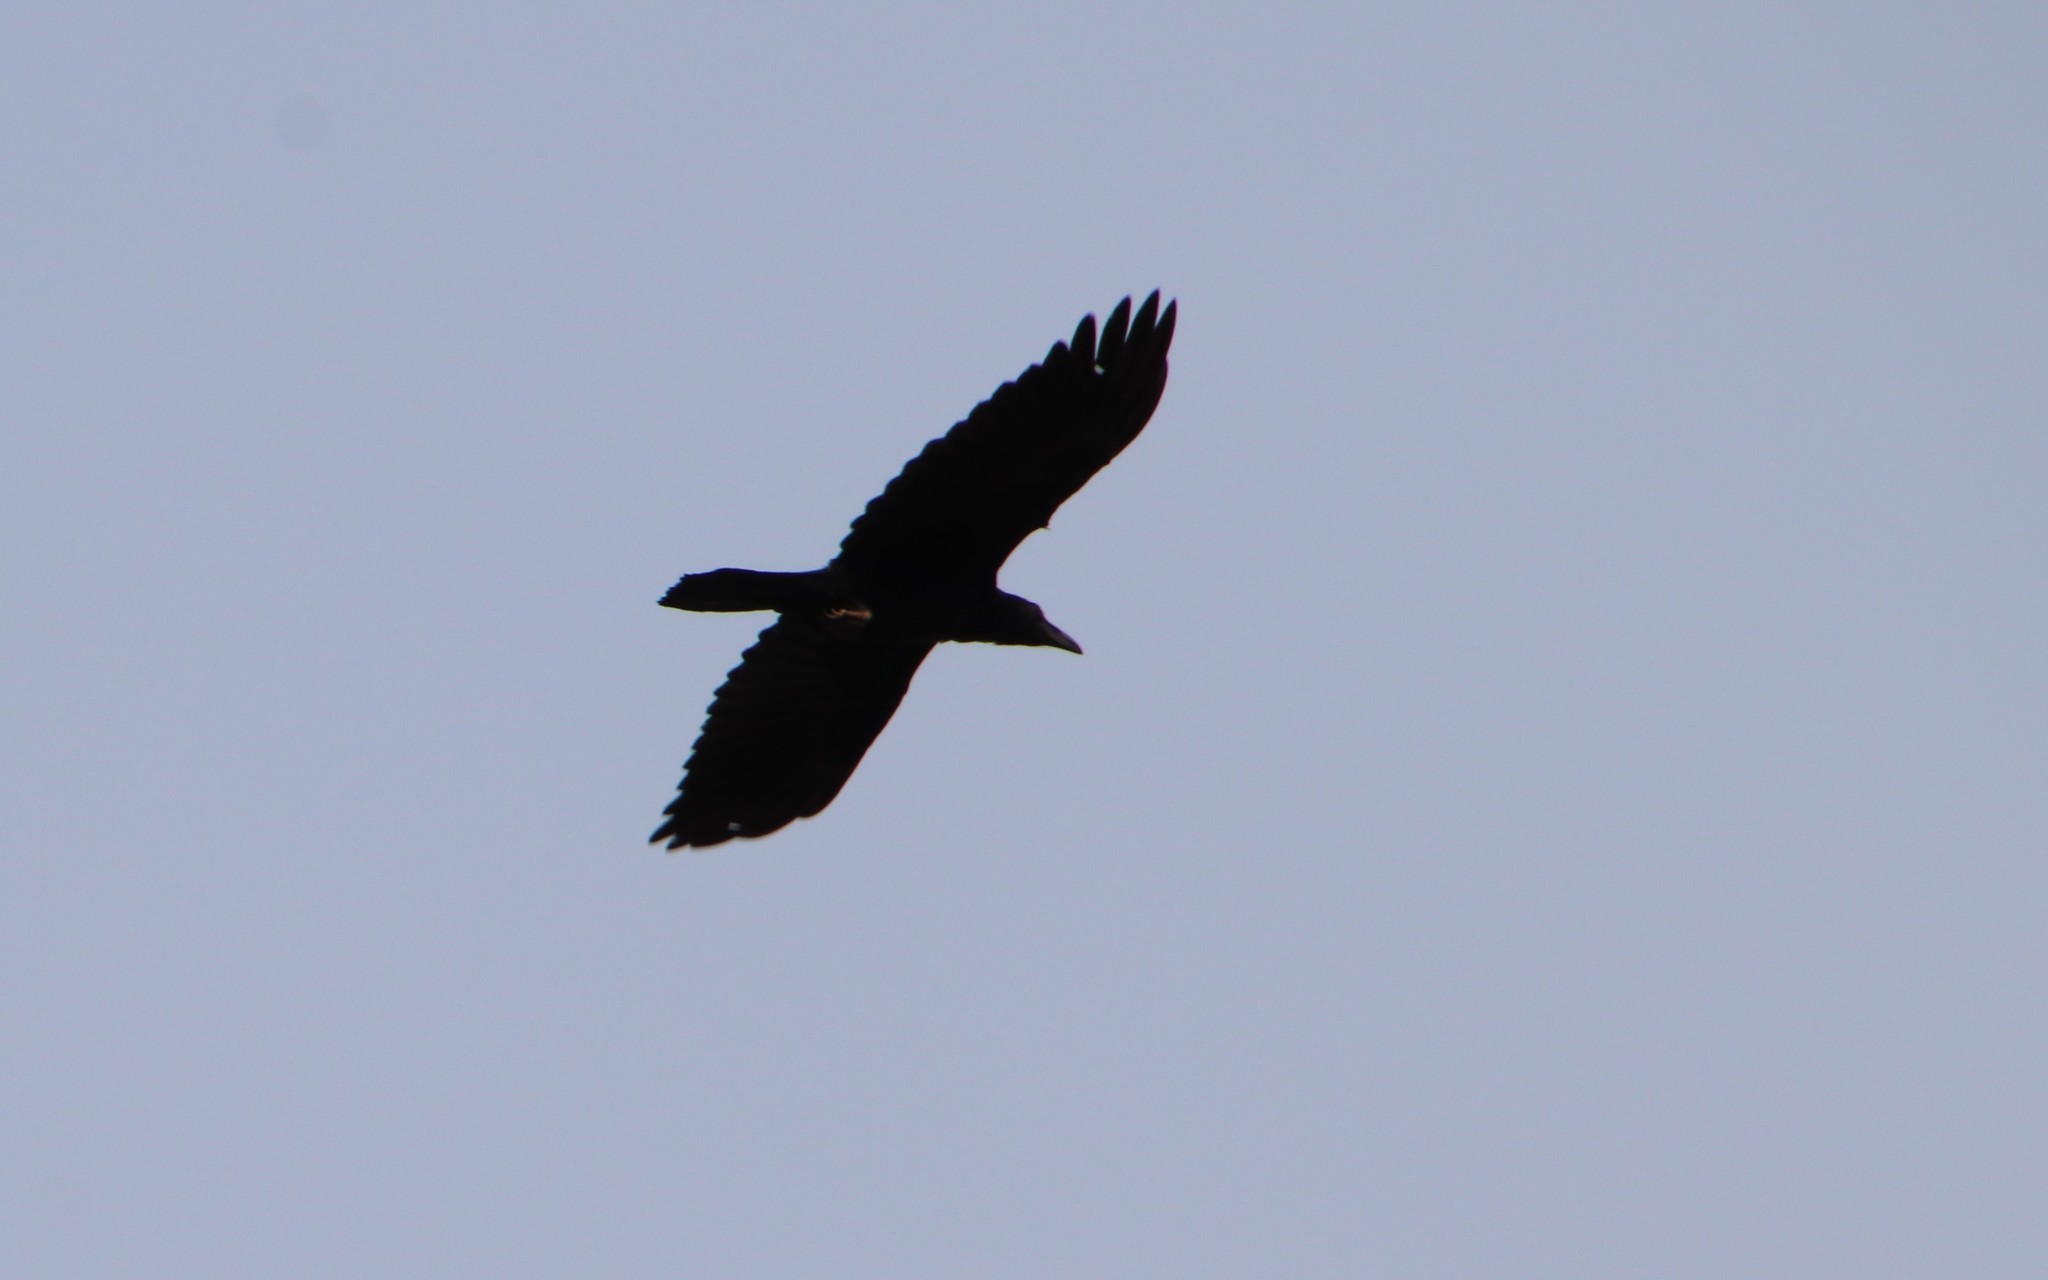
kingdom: Animalia
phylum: Chordata
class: Aves
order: Passeriformes
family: Corvidae
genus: Corvus
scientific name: Corvus corax
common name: Common raven
